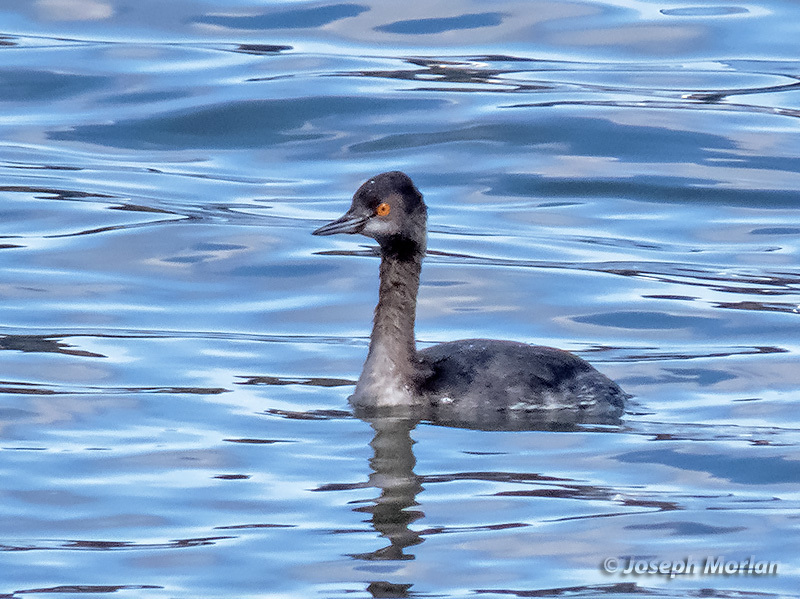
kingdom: Animalia
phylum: Chordata
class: Aves
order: Podicipediformes
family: Podicipedidae
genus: Podiceps
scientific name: Podiceps nigricollis
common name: Black-necked grebe
